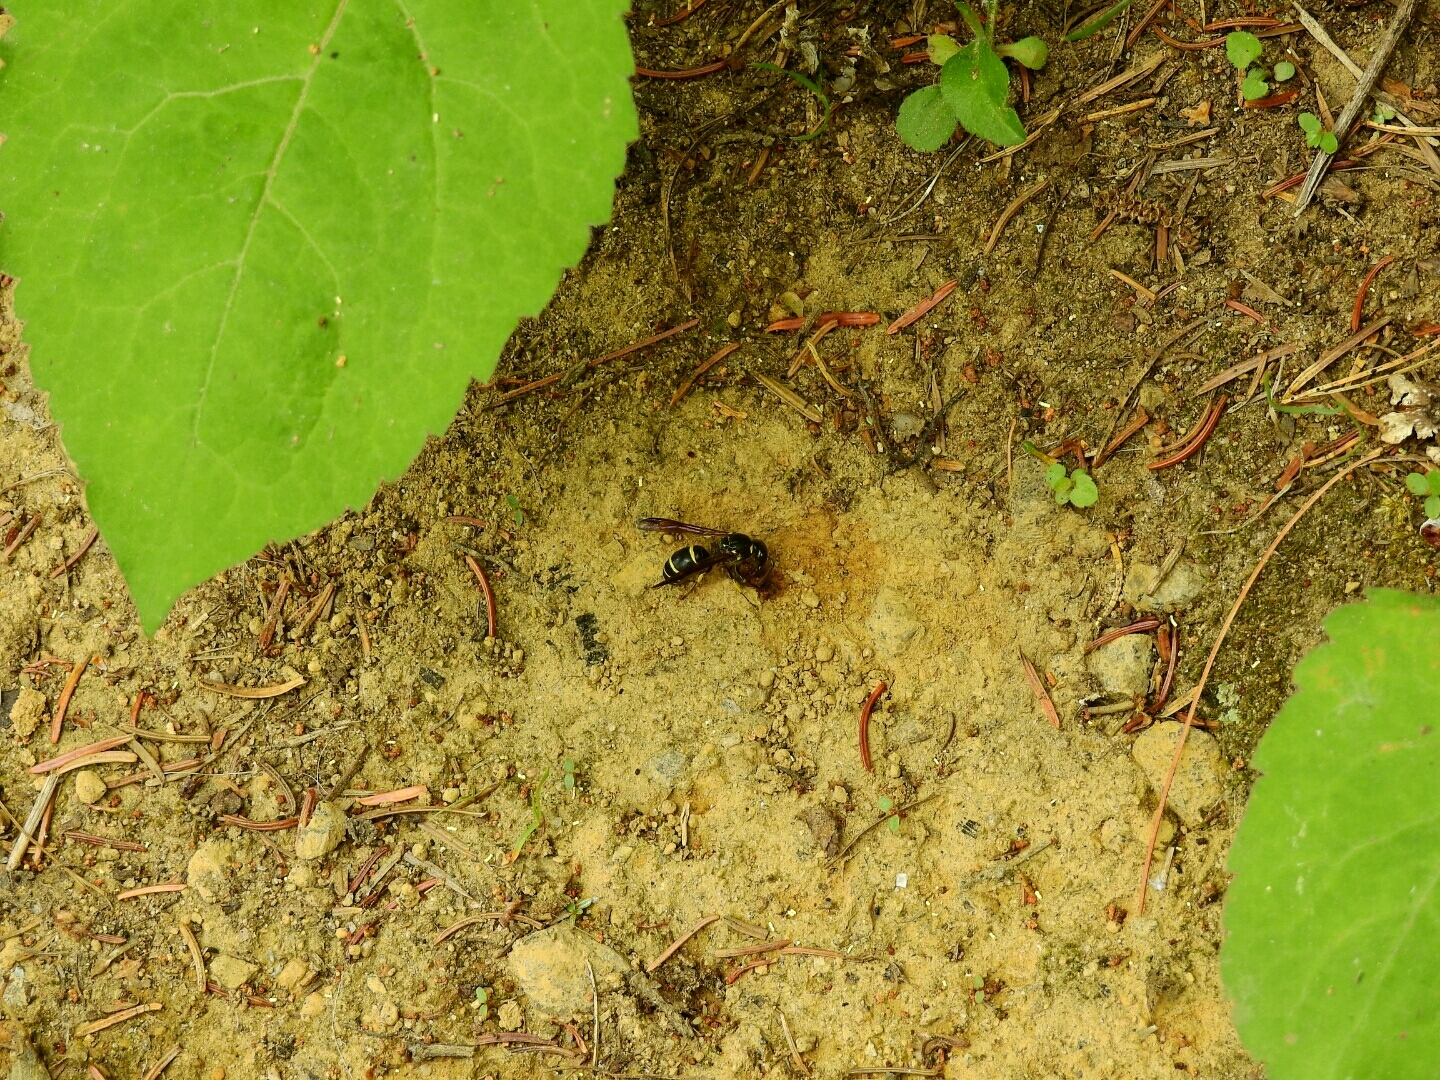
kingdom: Animalia
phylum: Arthropoda
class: Insecta
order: Hymenoptera
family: Vespidae
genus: Ancistrocerus
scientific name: Ancistrocerus
